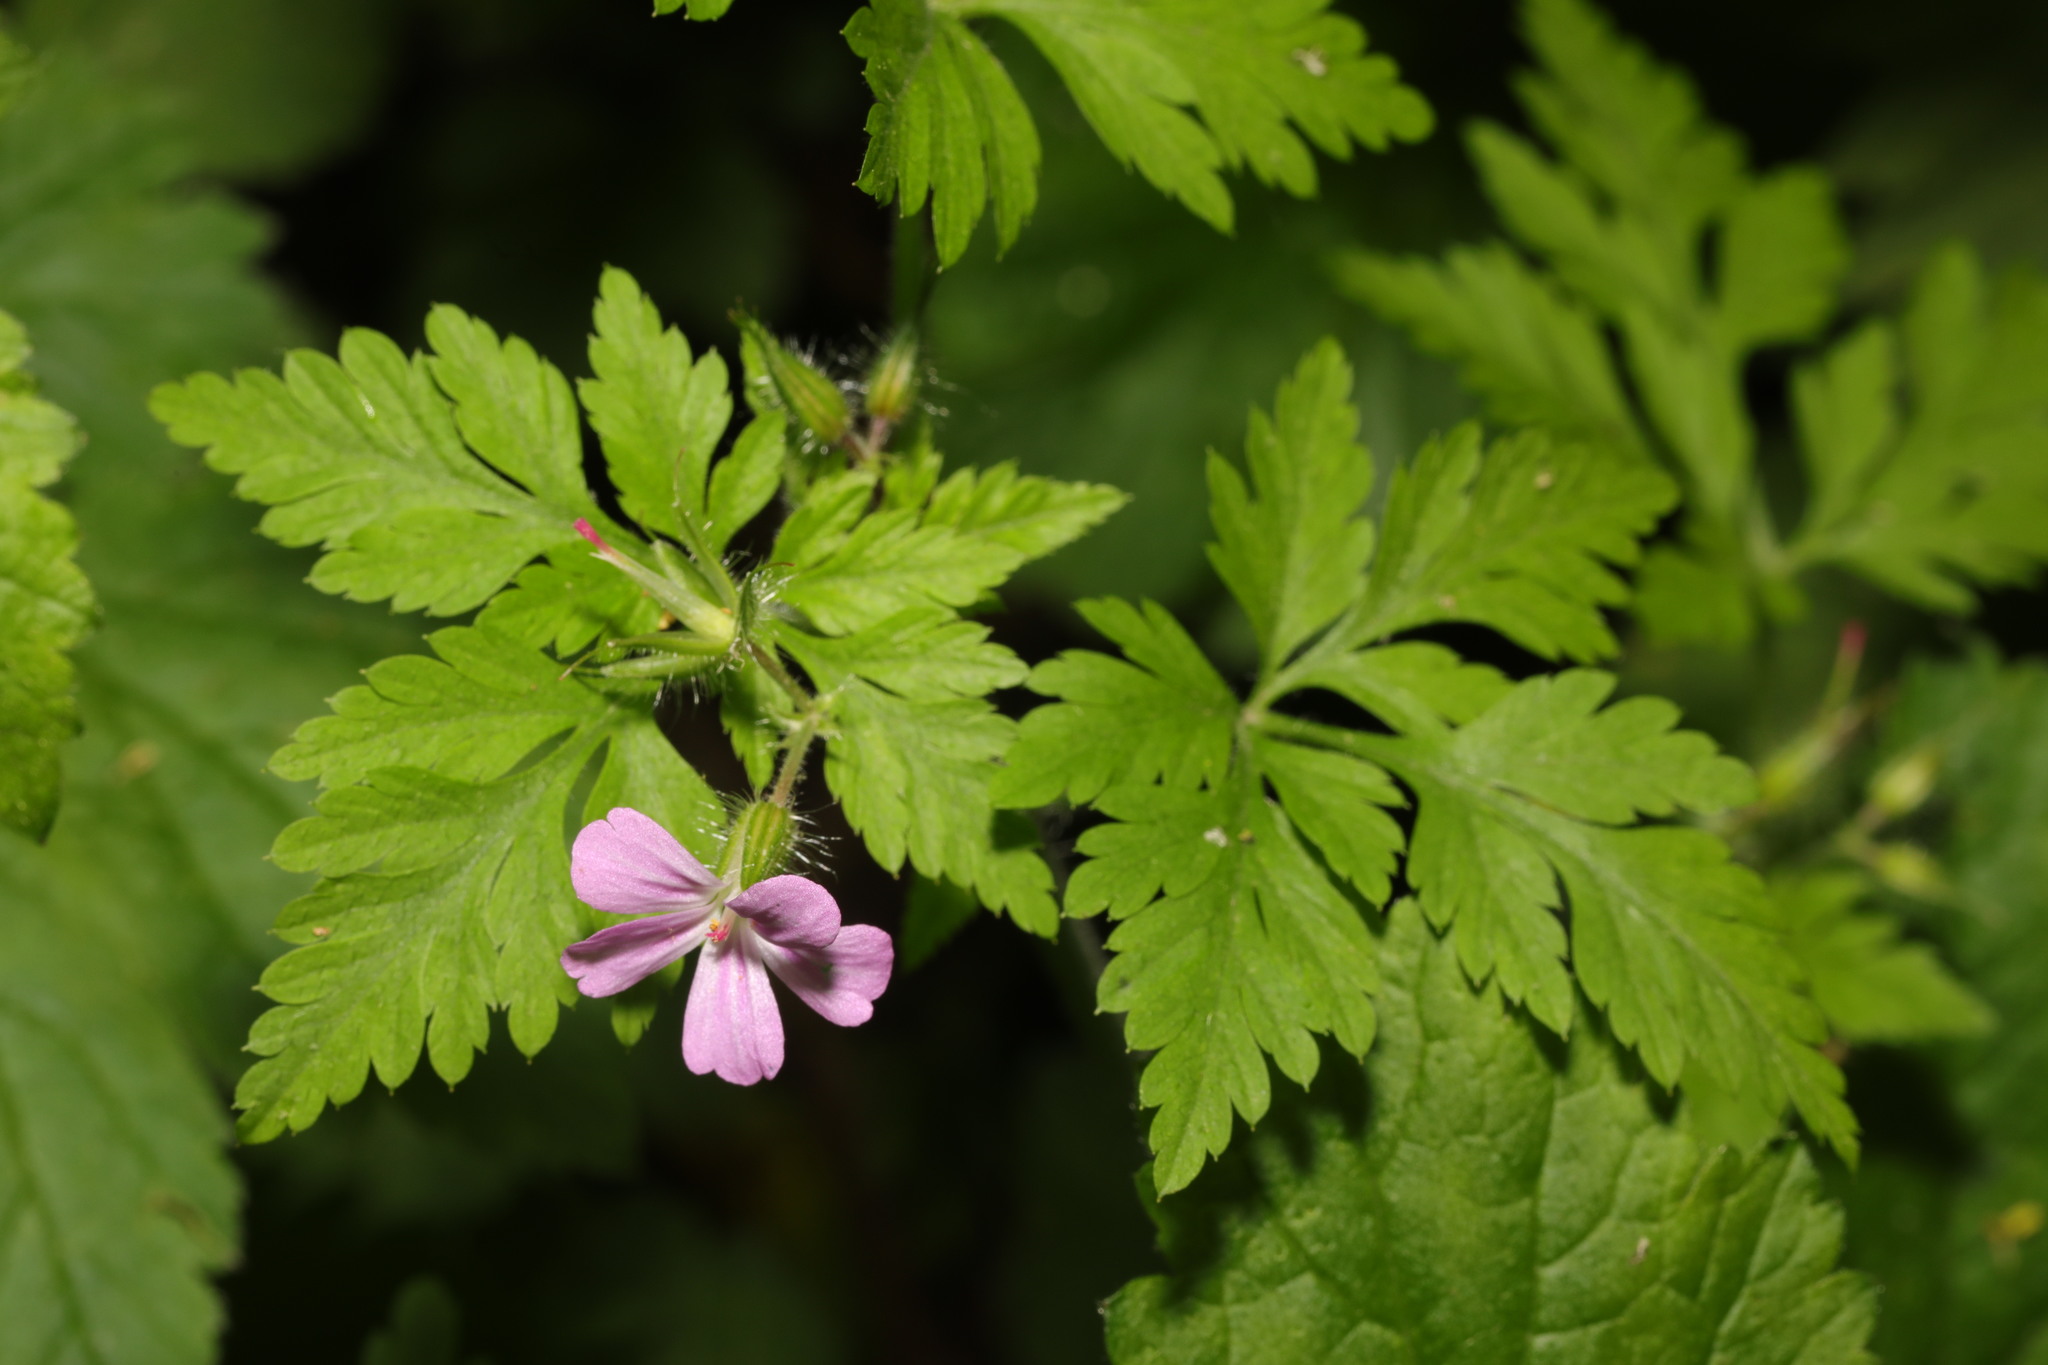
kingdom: Plantae
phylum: Tracheophyta
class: Magnoliopsida
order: Geraniales
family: Geraniaceae
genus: Geranium
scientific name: Geranium robertianum
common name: Herb-robert
